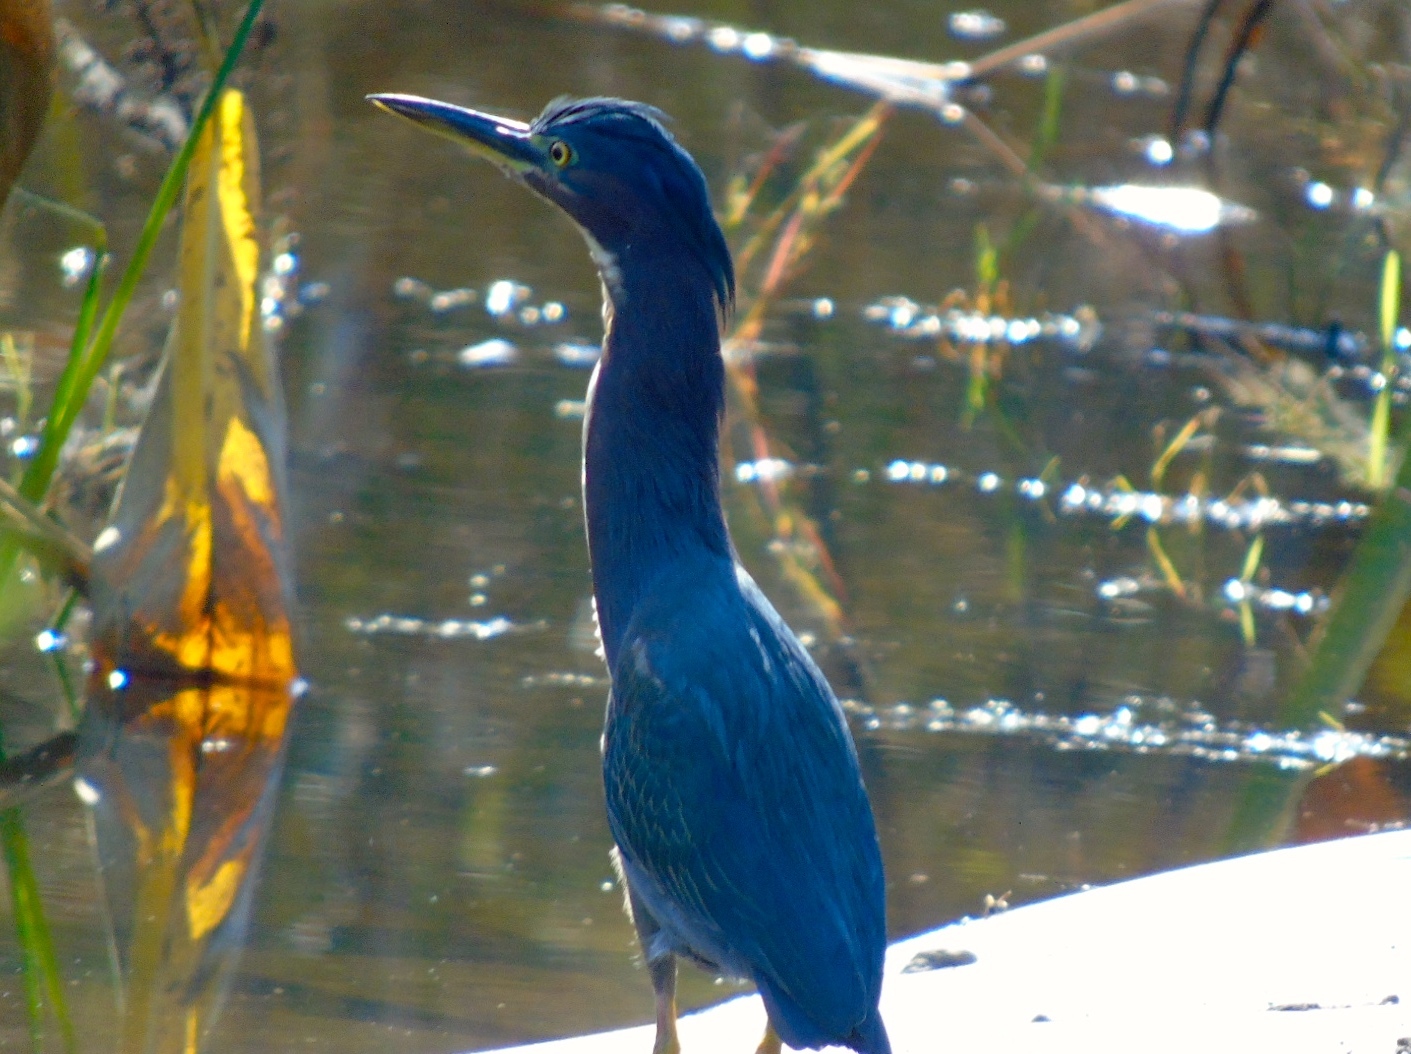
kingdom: Animalia
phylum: Chordata
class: Aves
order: Pelecaniformes
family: Ardeidae
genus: Butorides
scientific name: Butorides virescens
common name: Green heron
